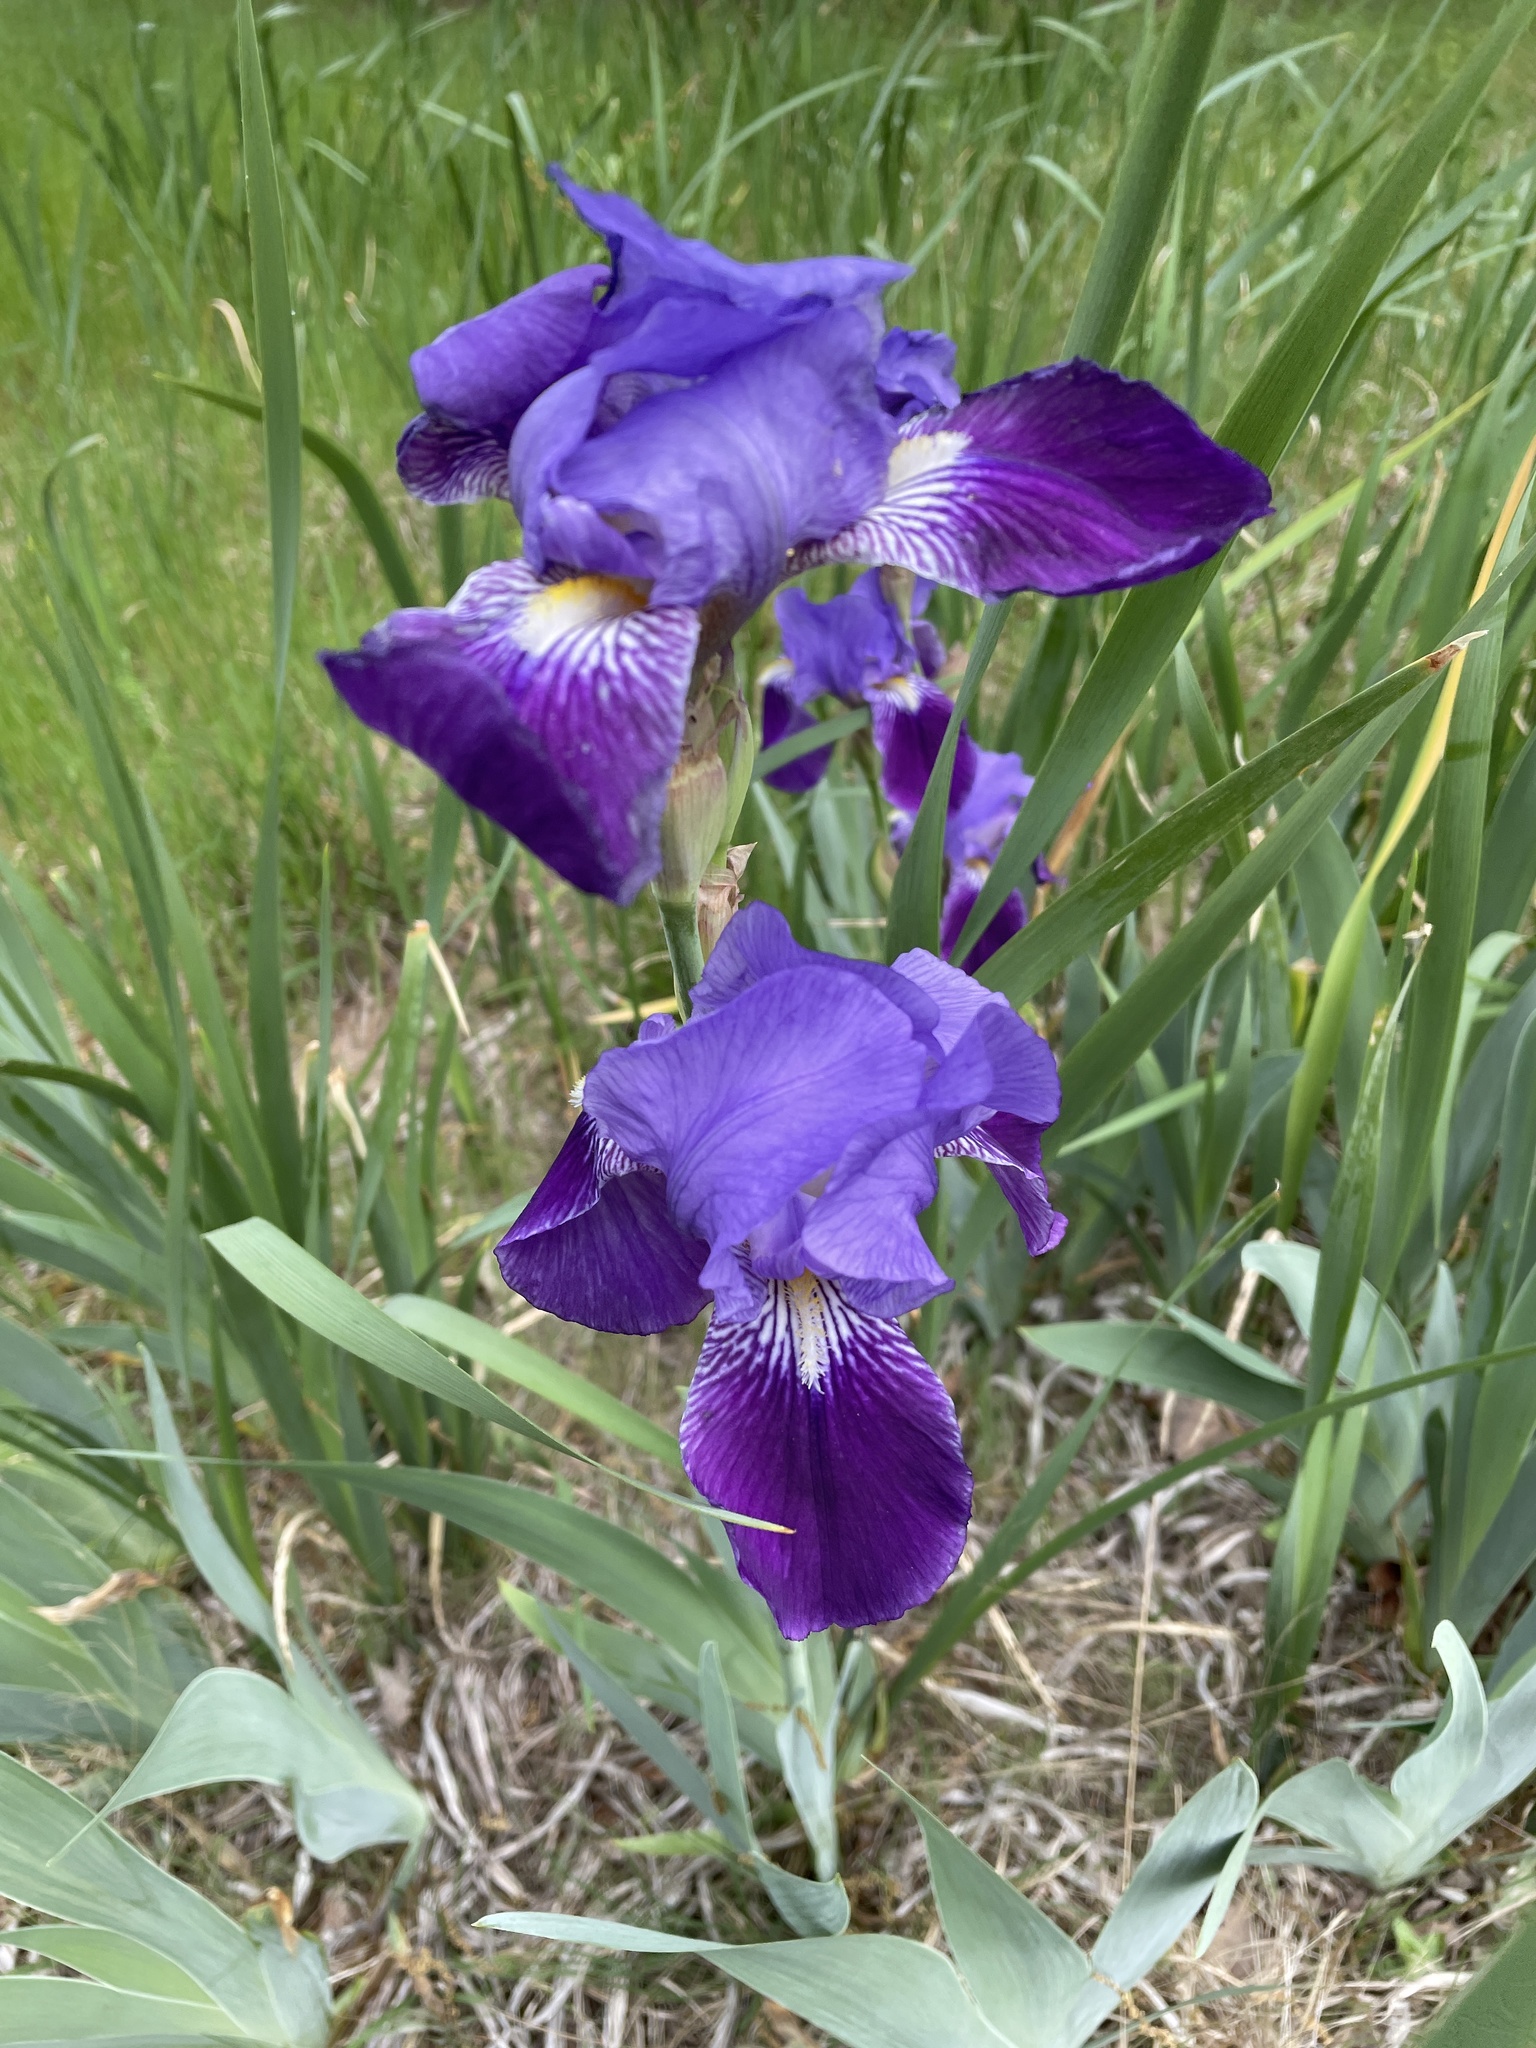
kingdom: Plantae
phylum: Tracheophyta
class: Liliopsida
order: Asparagales
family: Iridaceae
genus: Iris
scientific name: Iris germanica
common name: German iris
